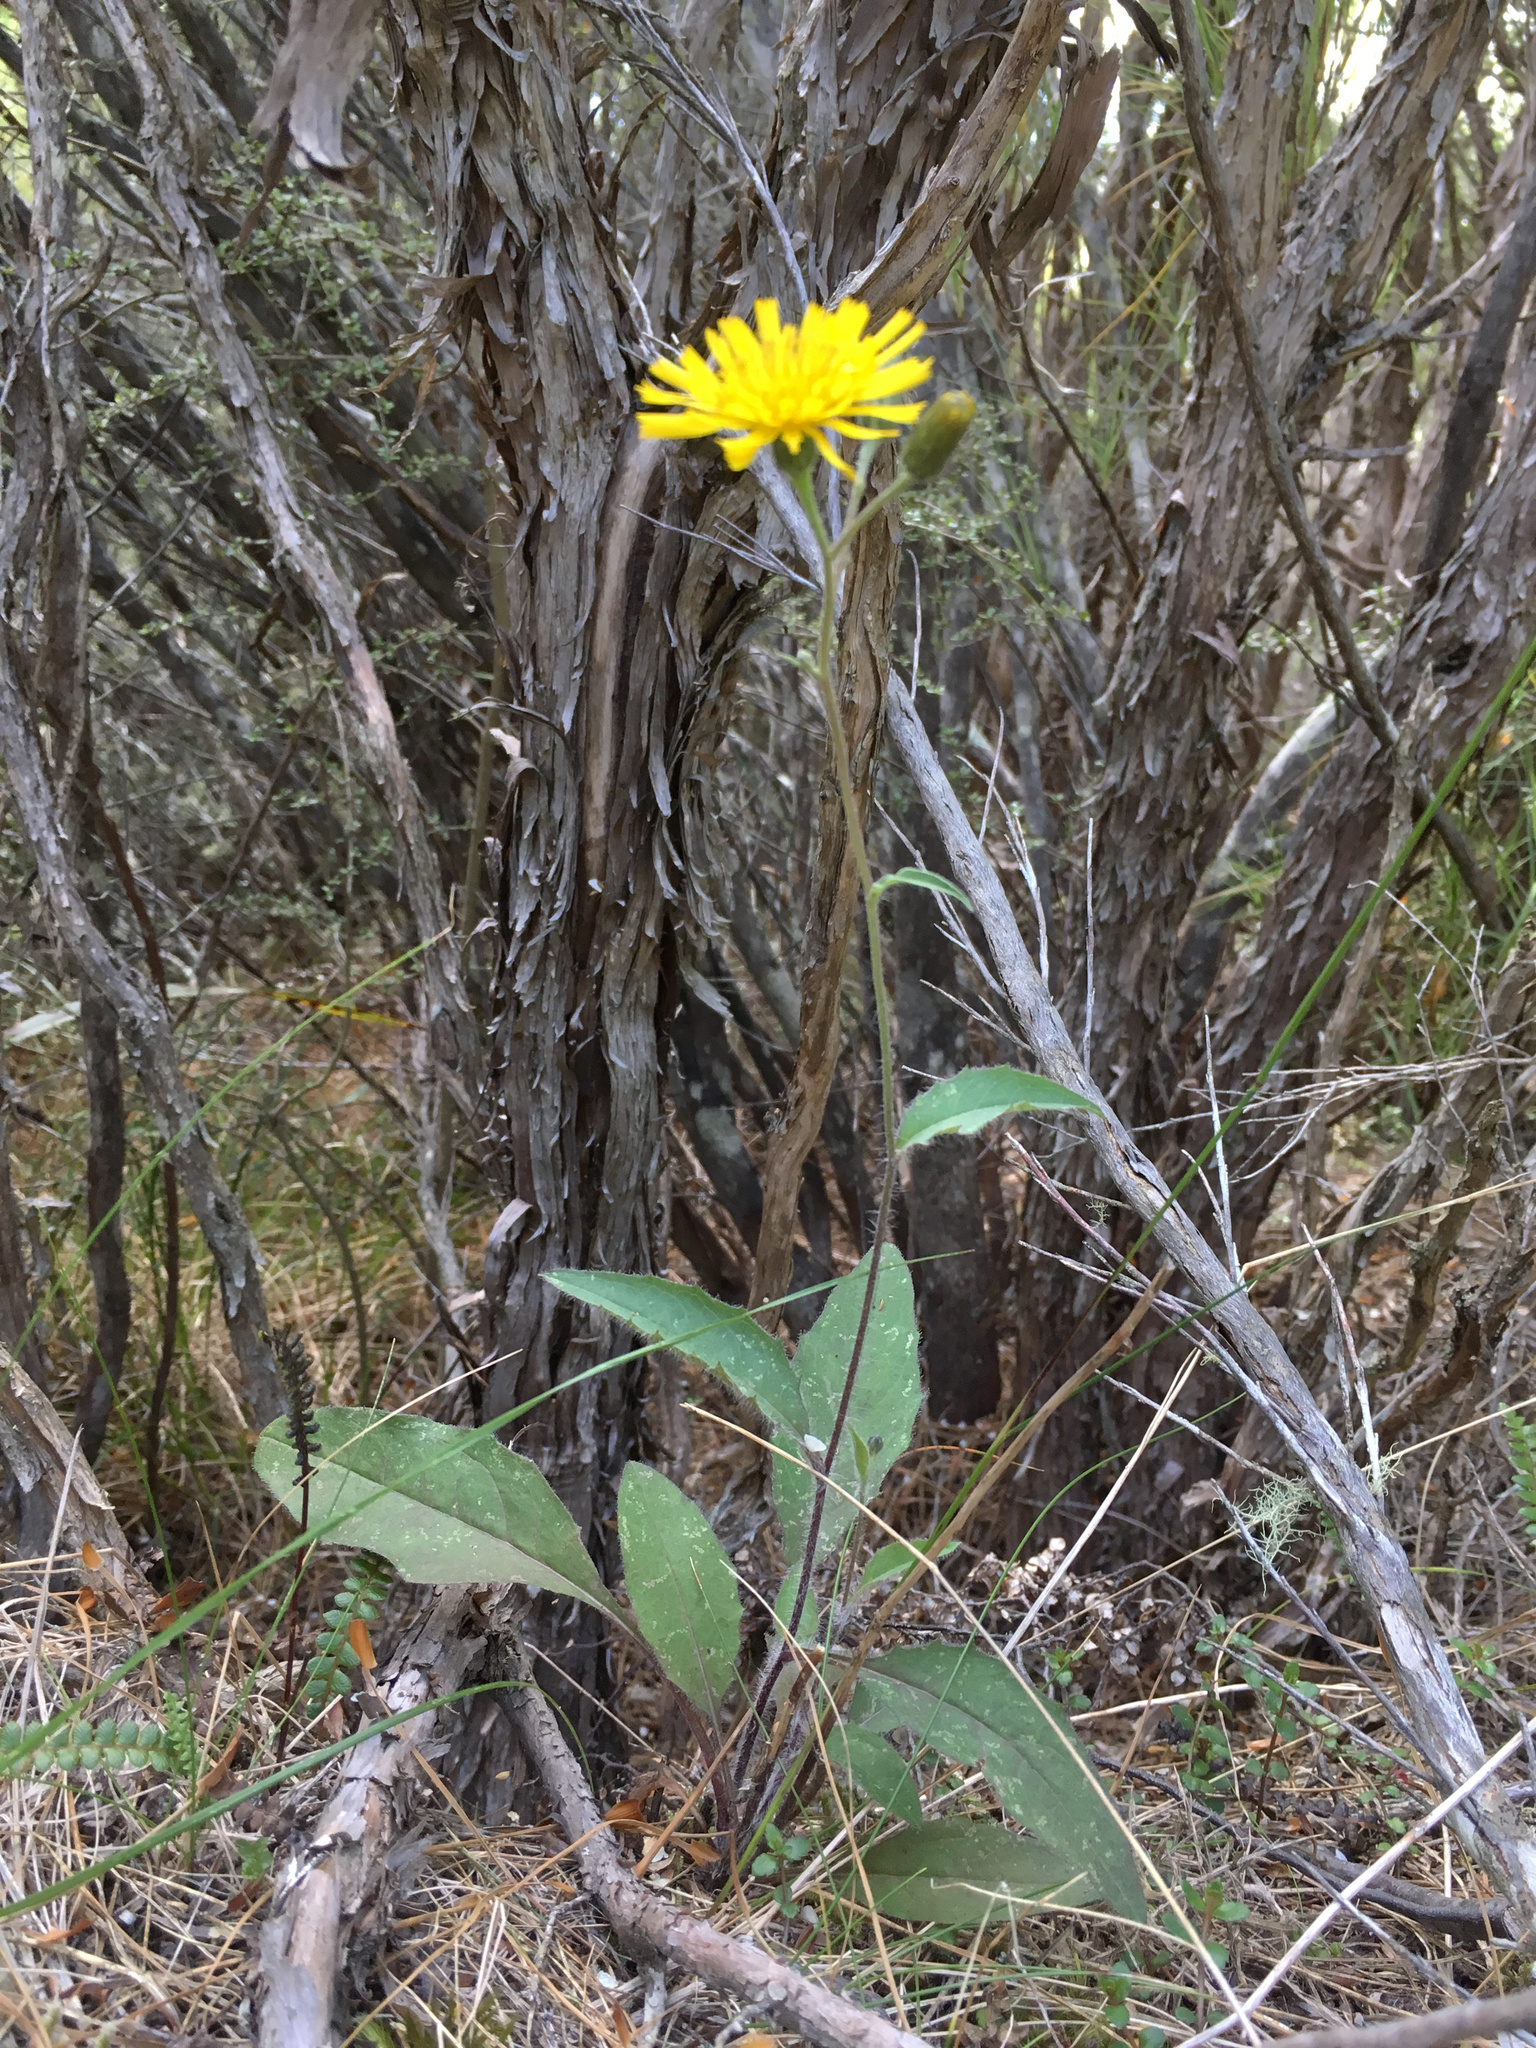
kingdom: Plantae
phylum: Tracheophyta
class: Magnoliopsida
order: Asterales
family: Asteraceae
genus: Hieracium
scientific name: Hieracium lepidulum
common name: Irregular-toothed hawkweed
